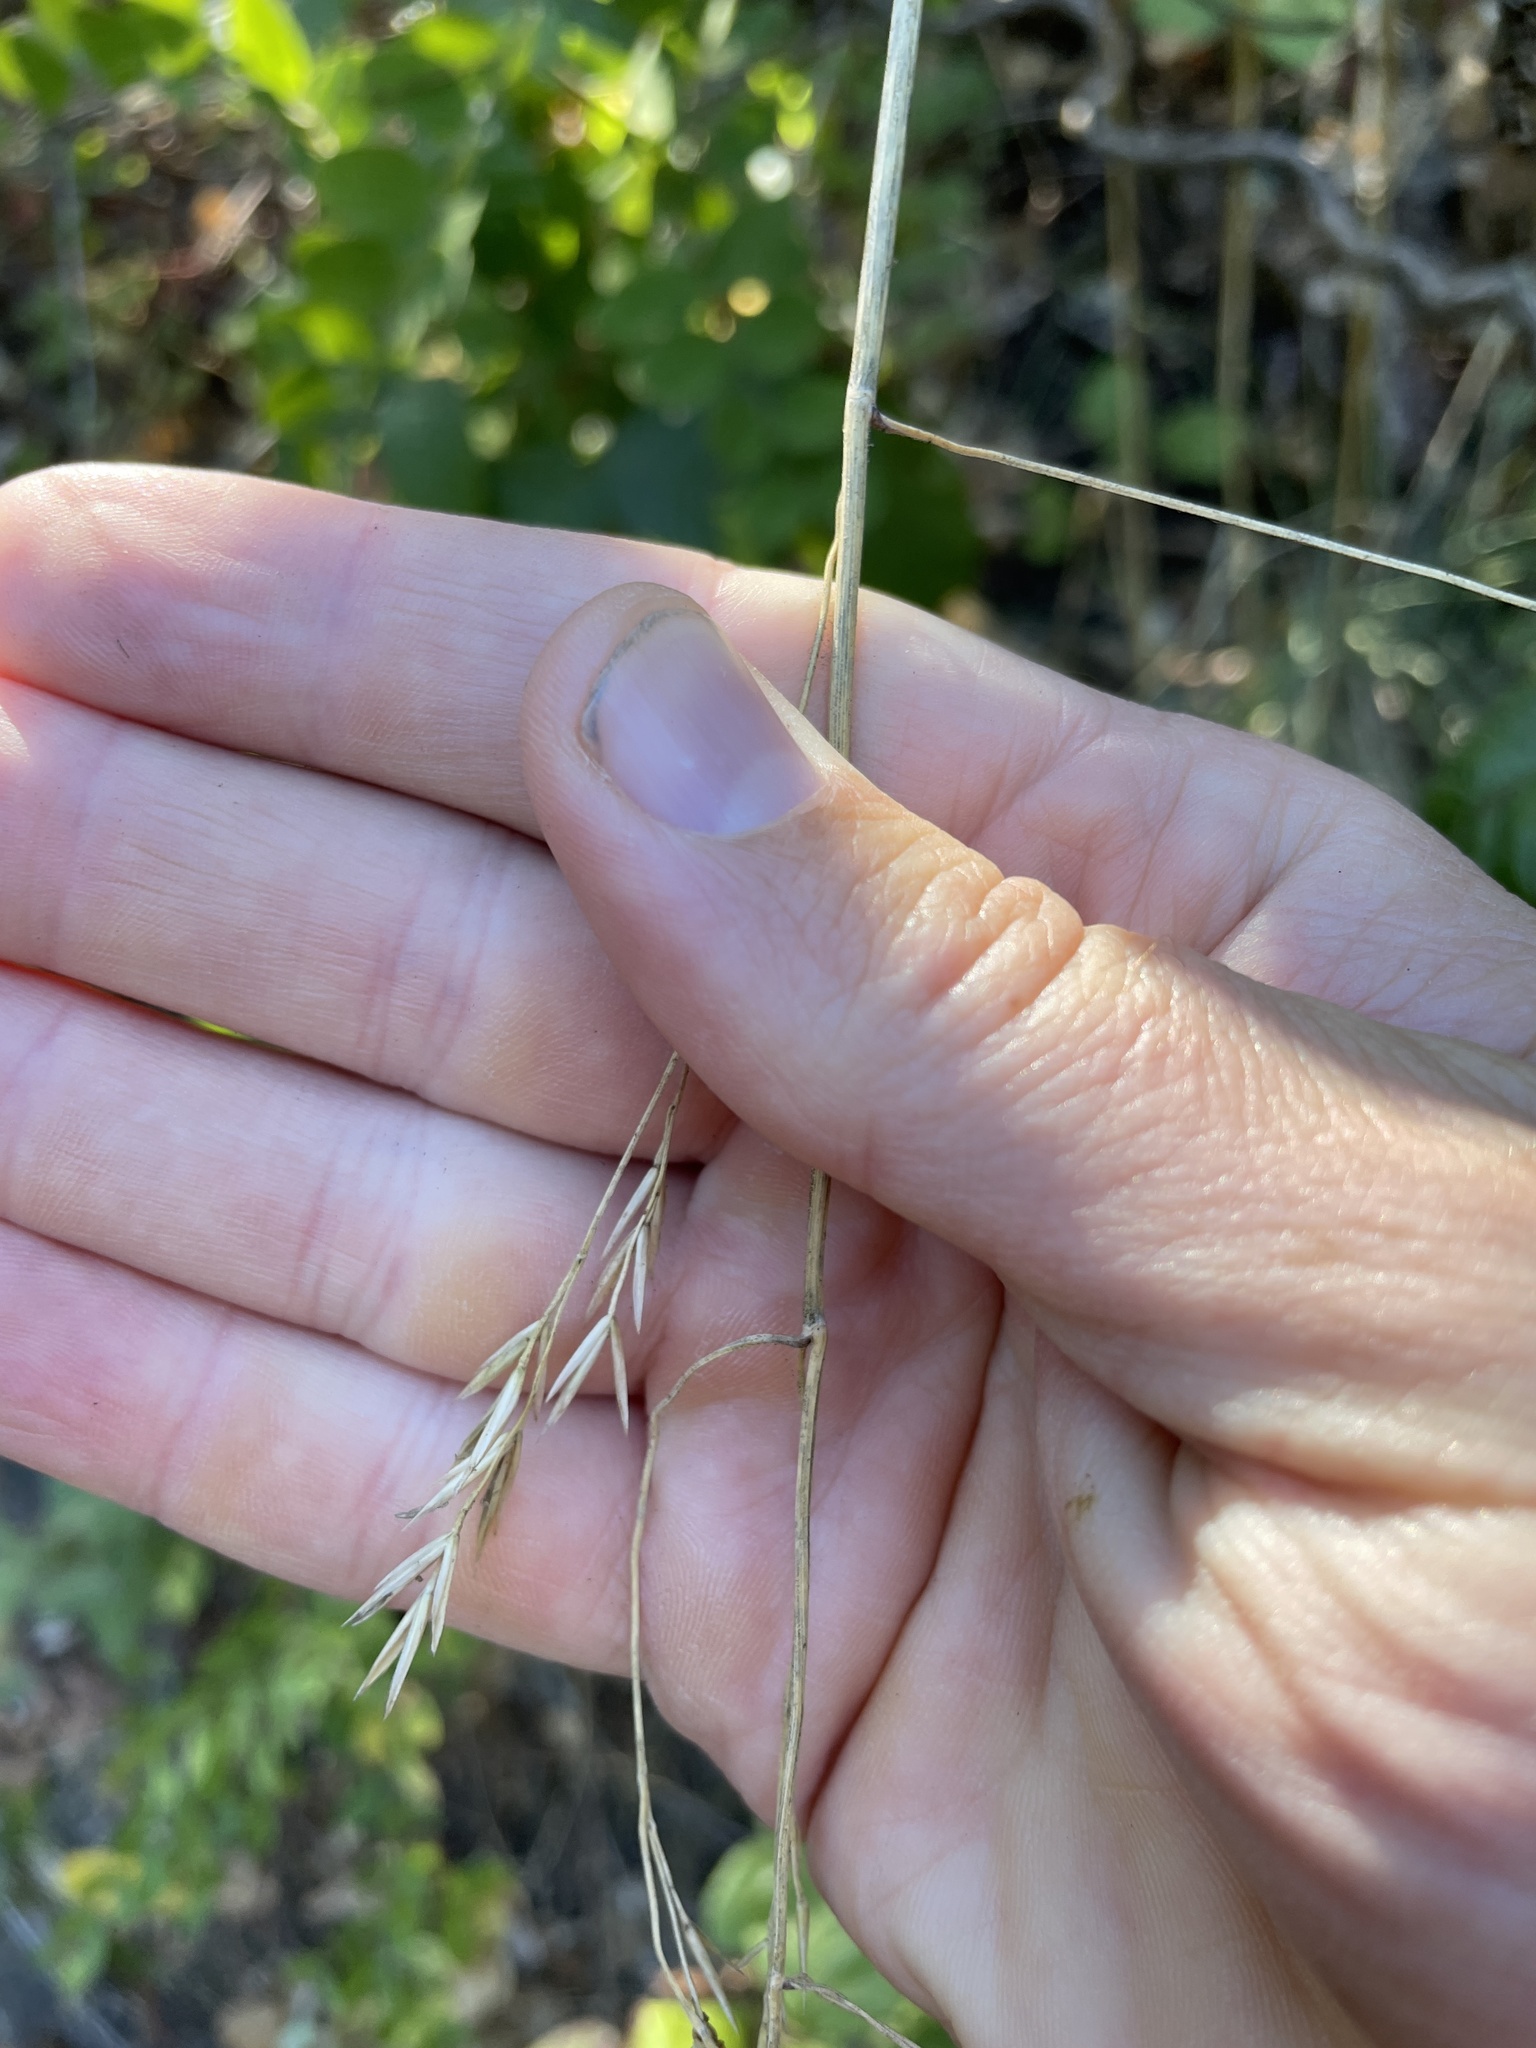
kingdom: Plantae
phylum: Tracheophyta
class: Liliopsida
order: Poales
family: Poaceae
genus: Festuca
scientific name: Festuca californica
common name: California fescue
